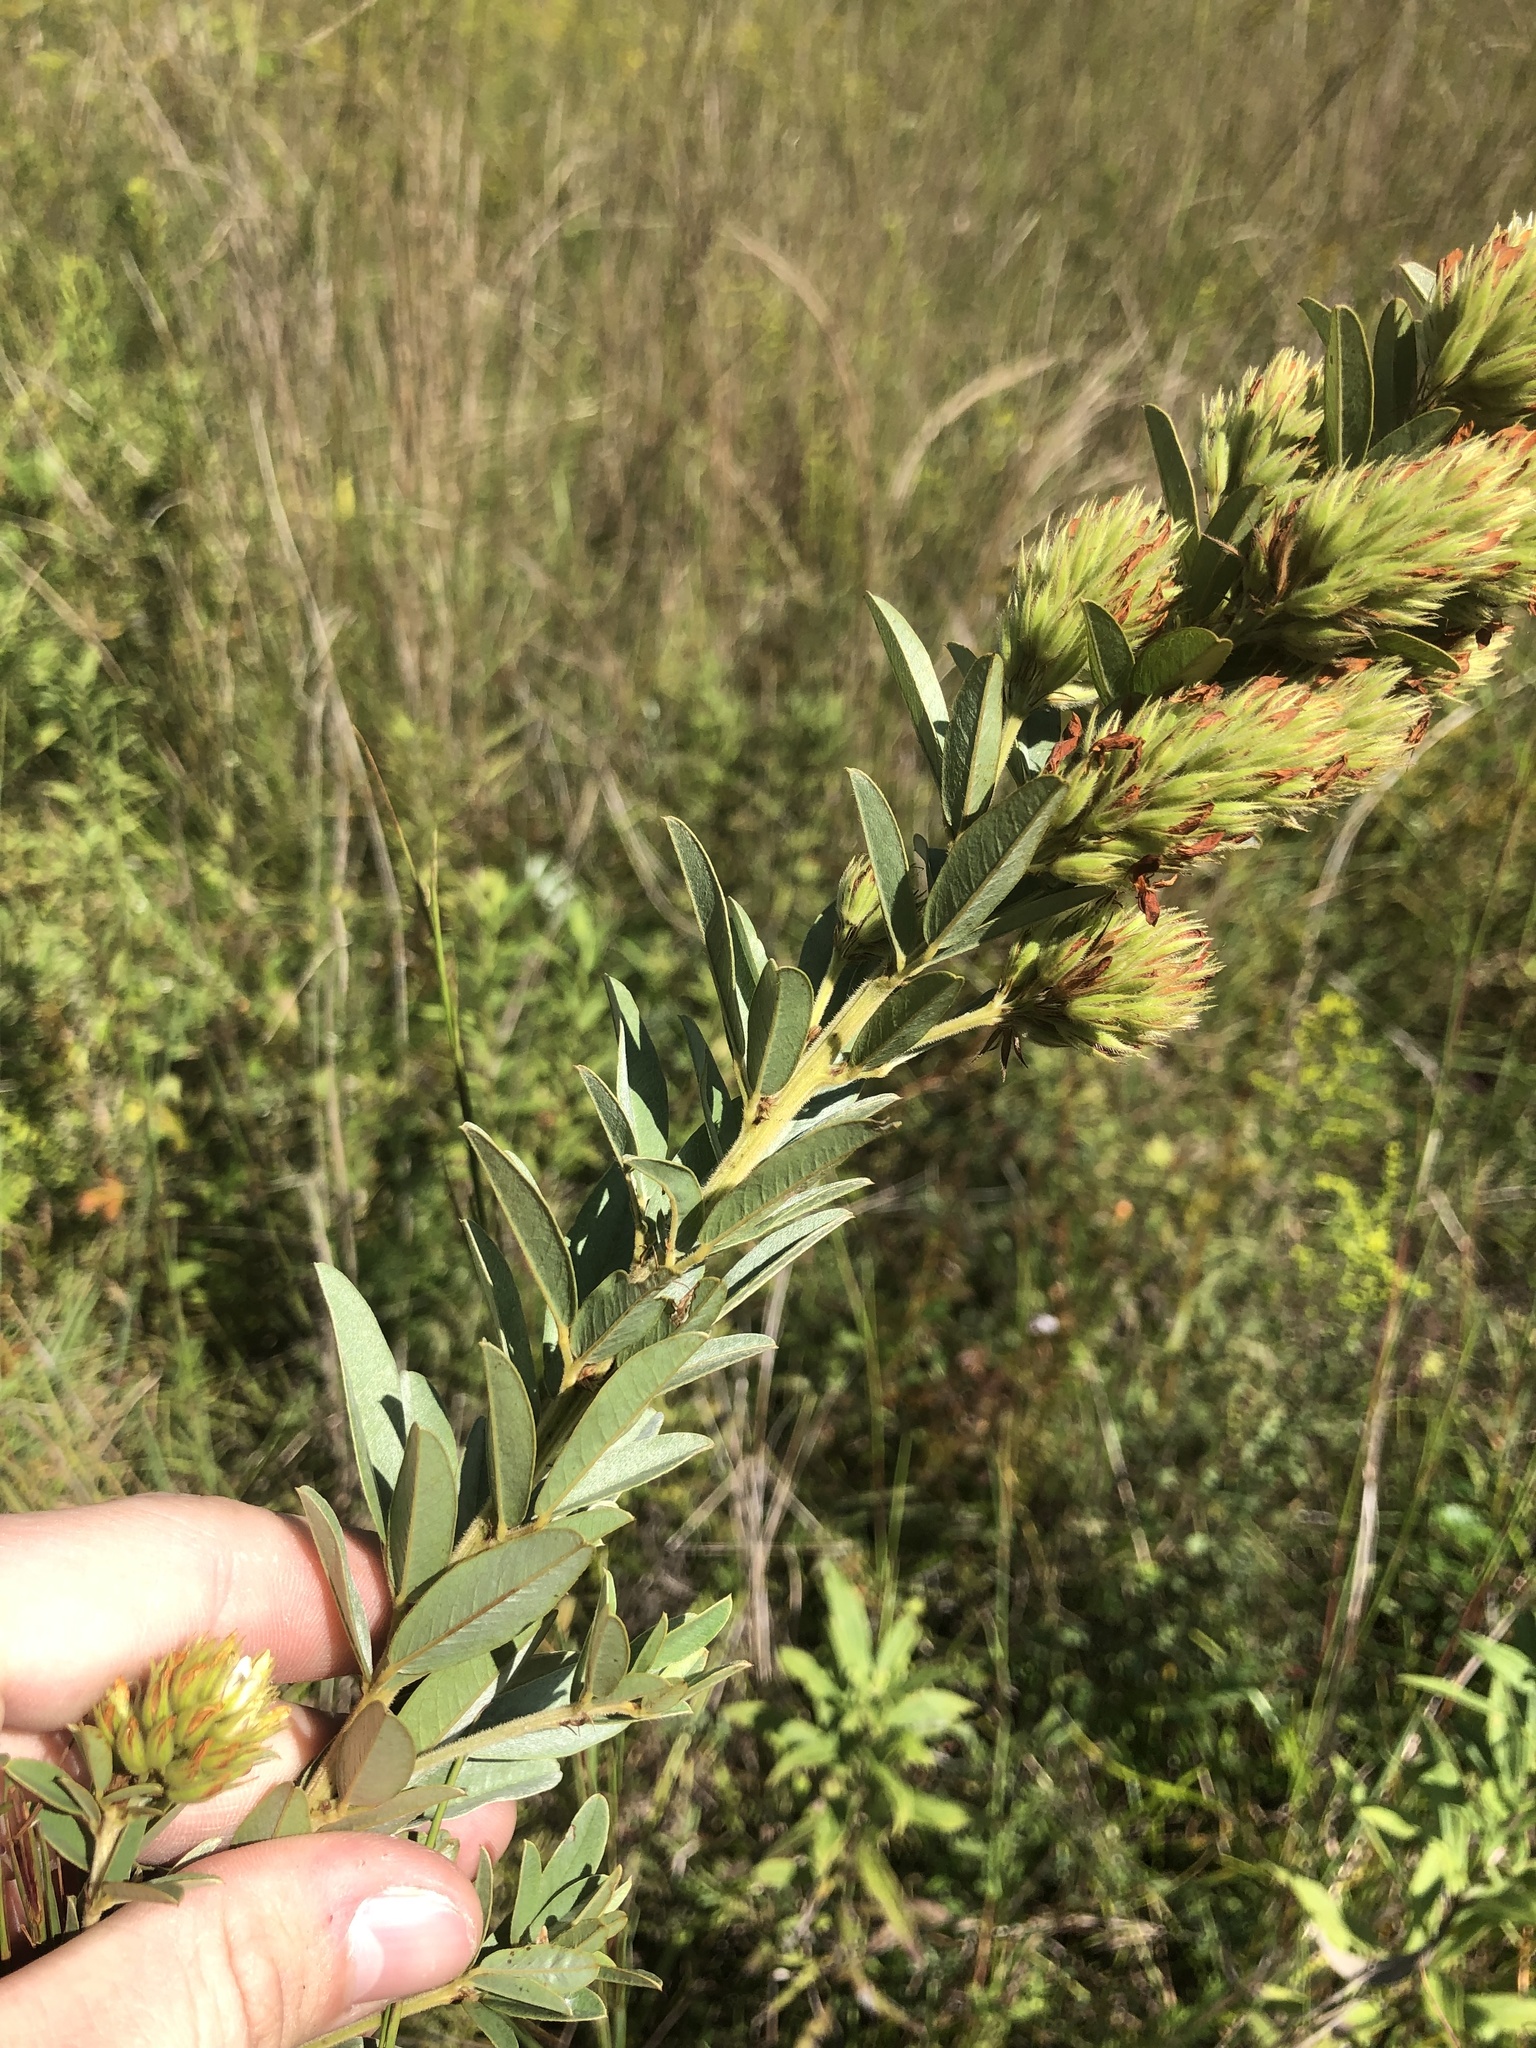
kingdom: Plantae
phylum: Tracheophyta
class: Magnoliopsida
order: Fabales
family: Fabaceae
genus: Lespedeza
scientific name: Lespedeza capitata
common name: Dusty clover
